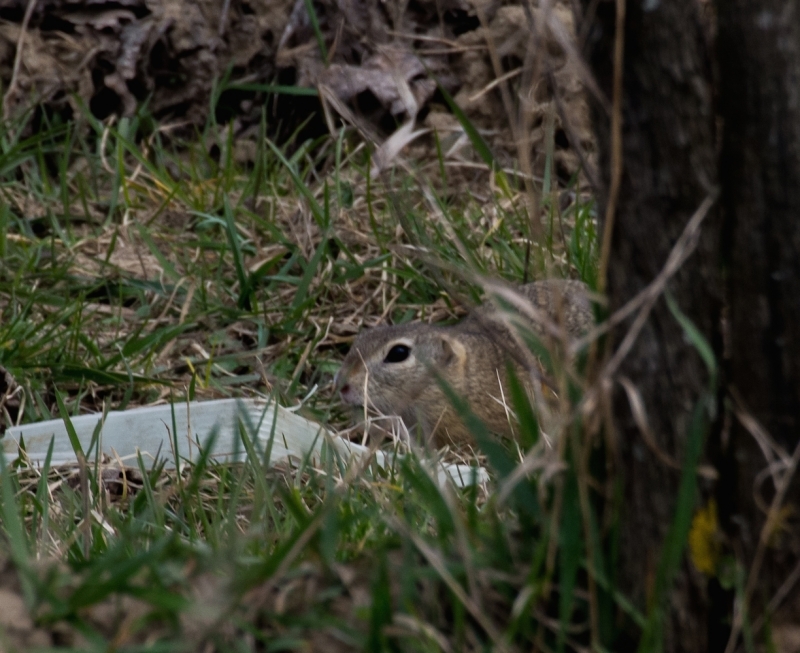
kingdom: Animalia
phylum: Chordata
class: Mammalia
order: Rodentia
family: Sciuridae
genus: Spermophilus
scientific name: Spermophilus citellus
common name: European ground squirrel
